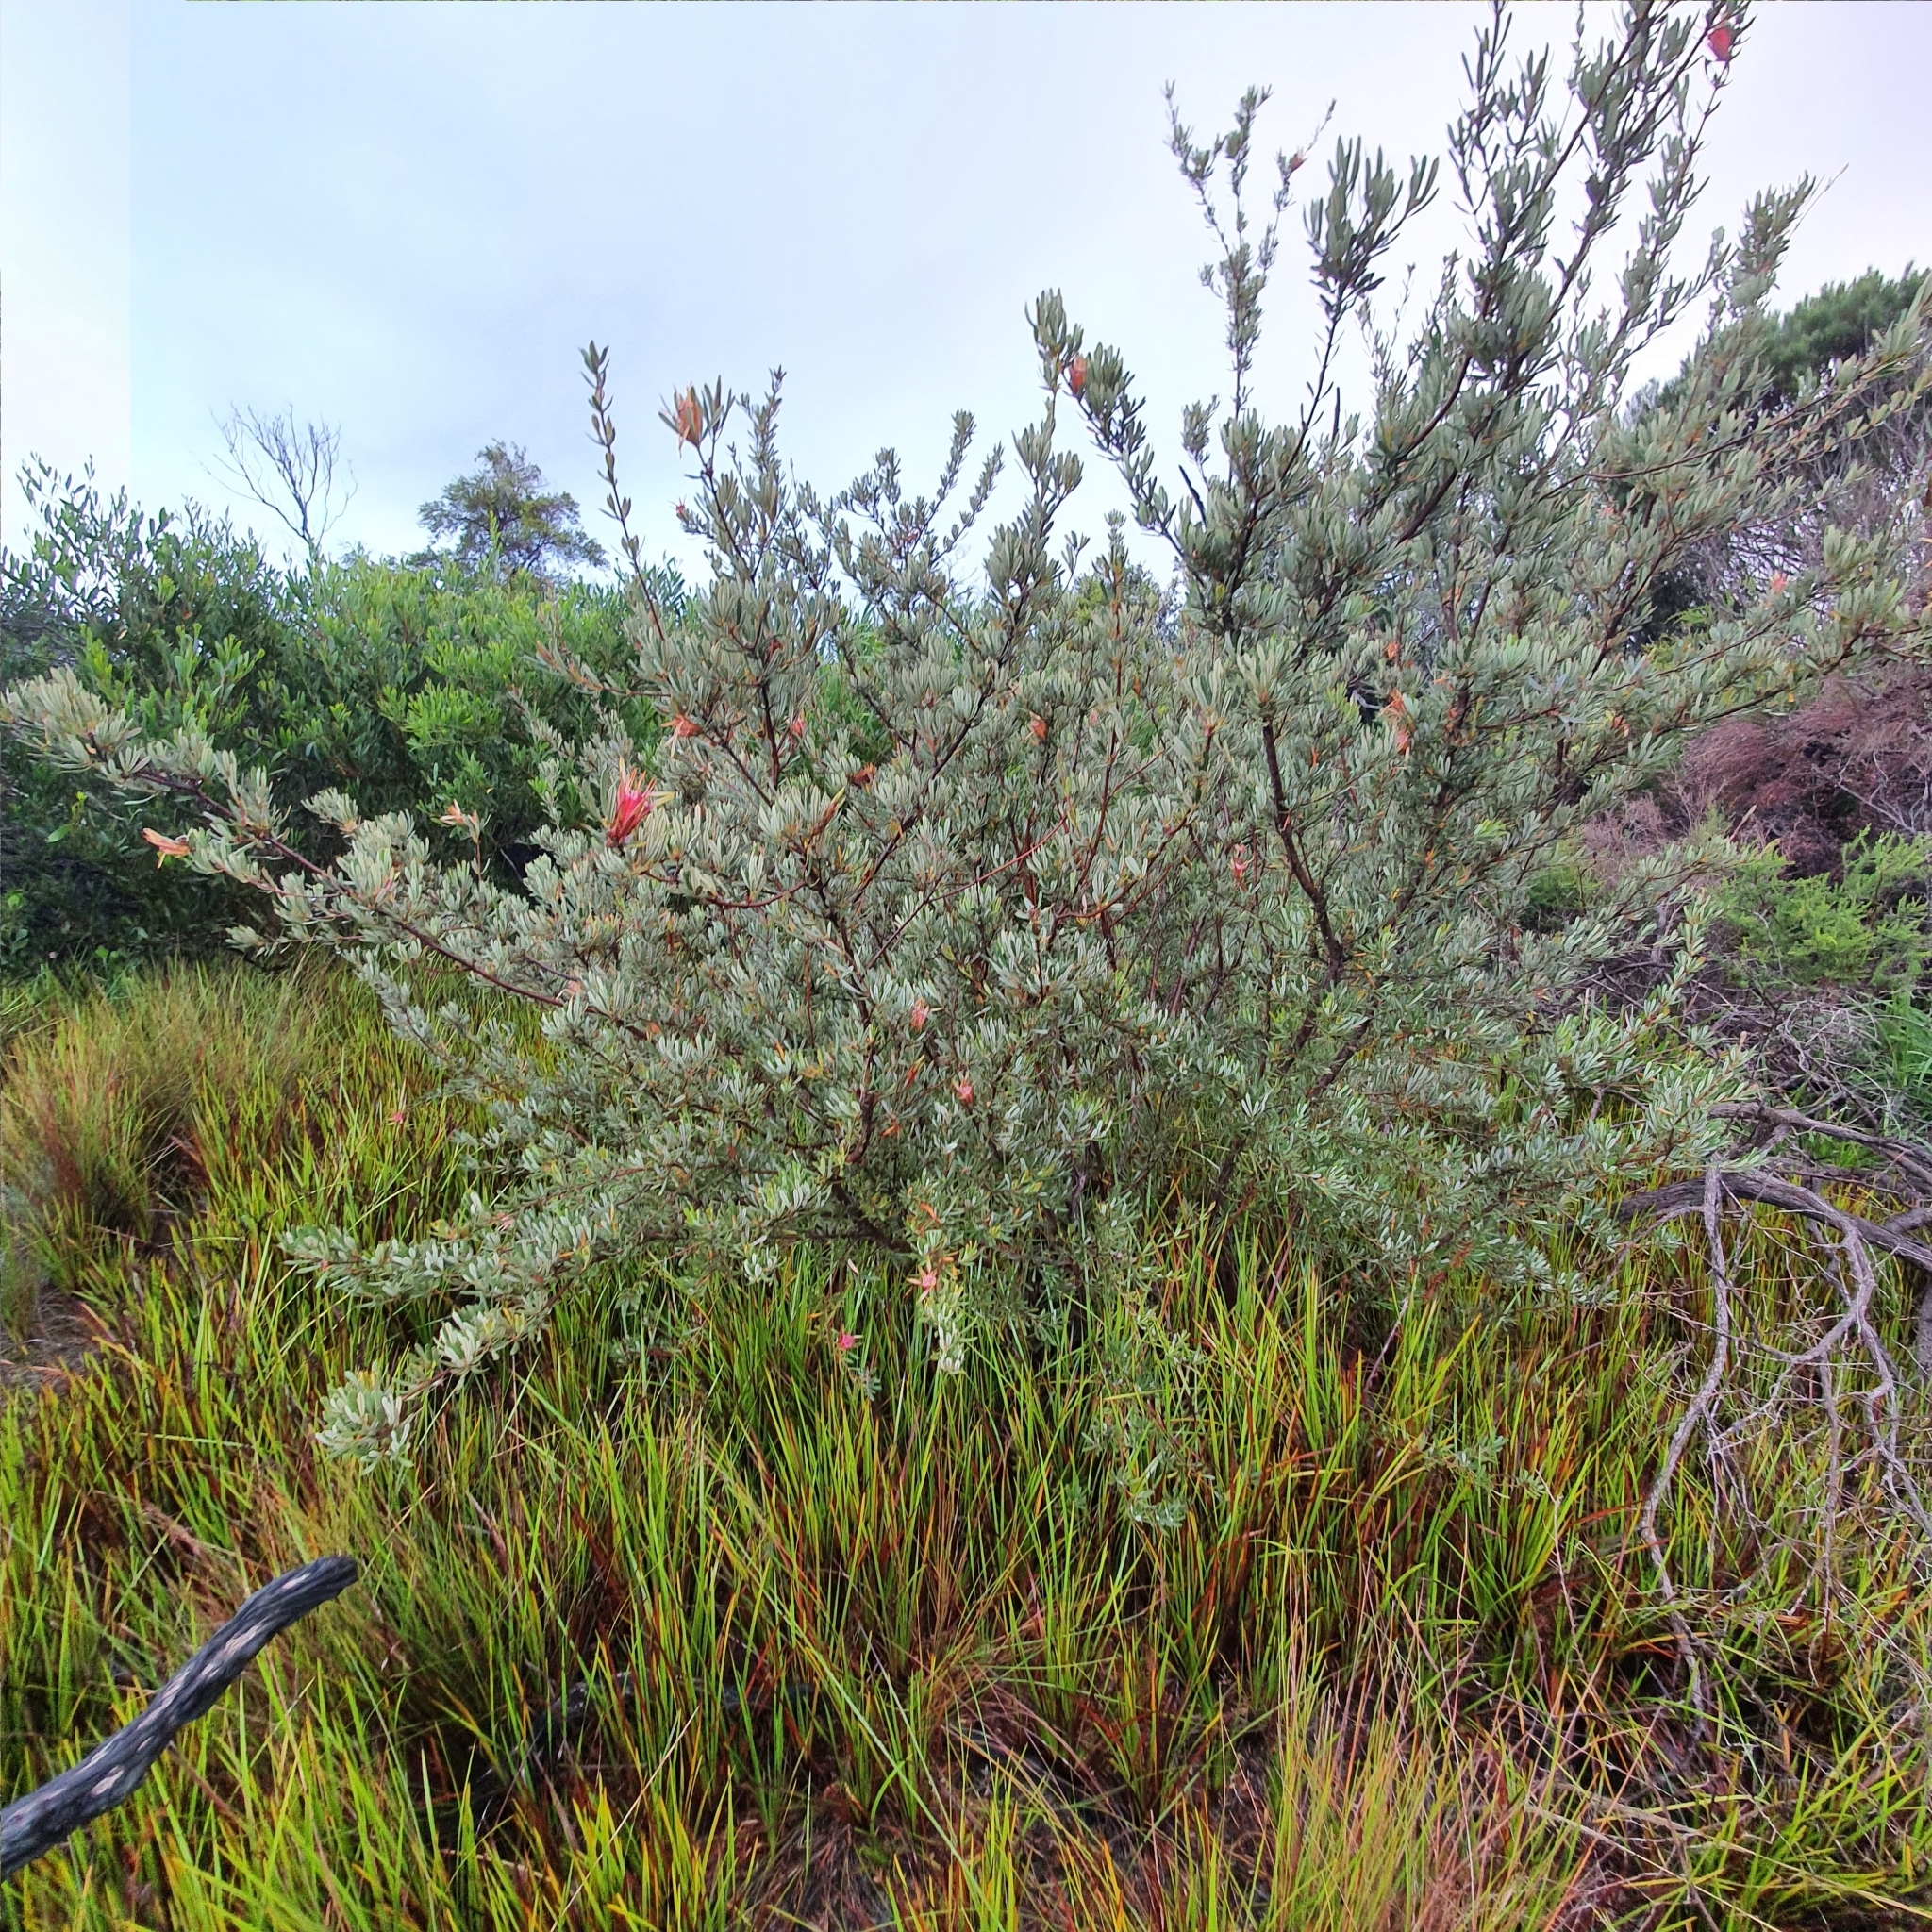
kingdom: Plantae
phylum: Tracheophyta
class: Magnoliopsida
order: Proteales
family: Proteaceae
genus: Lambertia
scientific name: Lambertia formosa
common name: Mountain-devil
